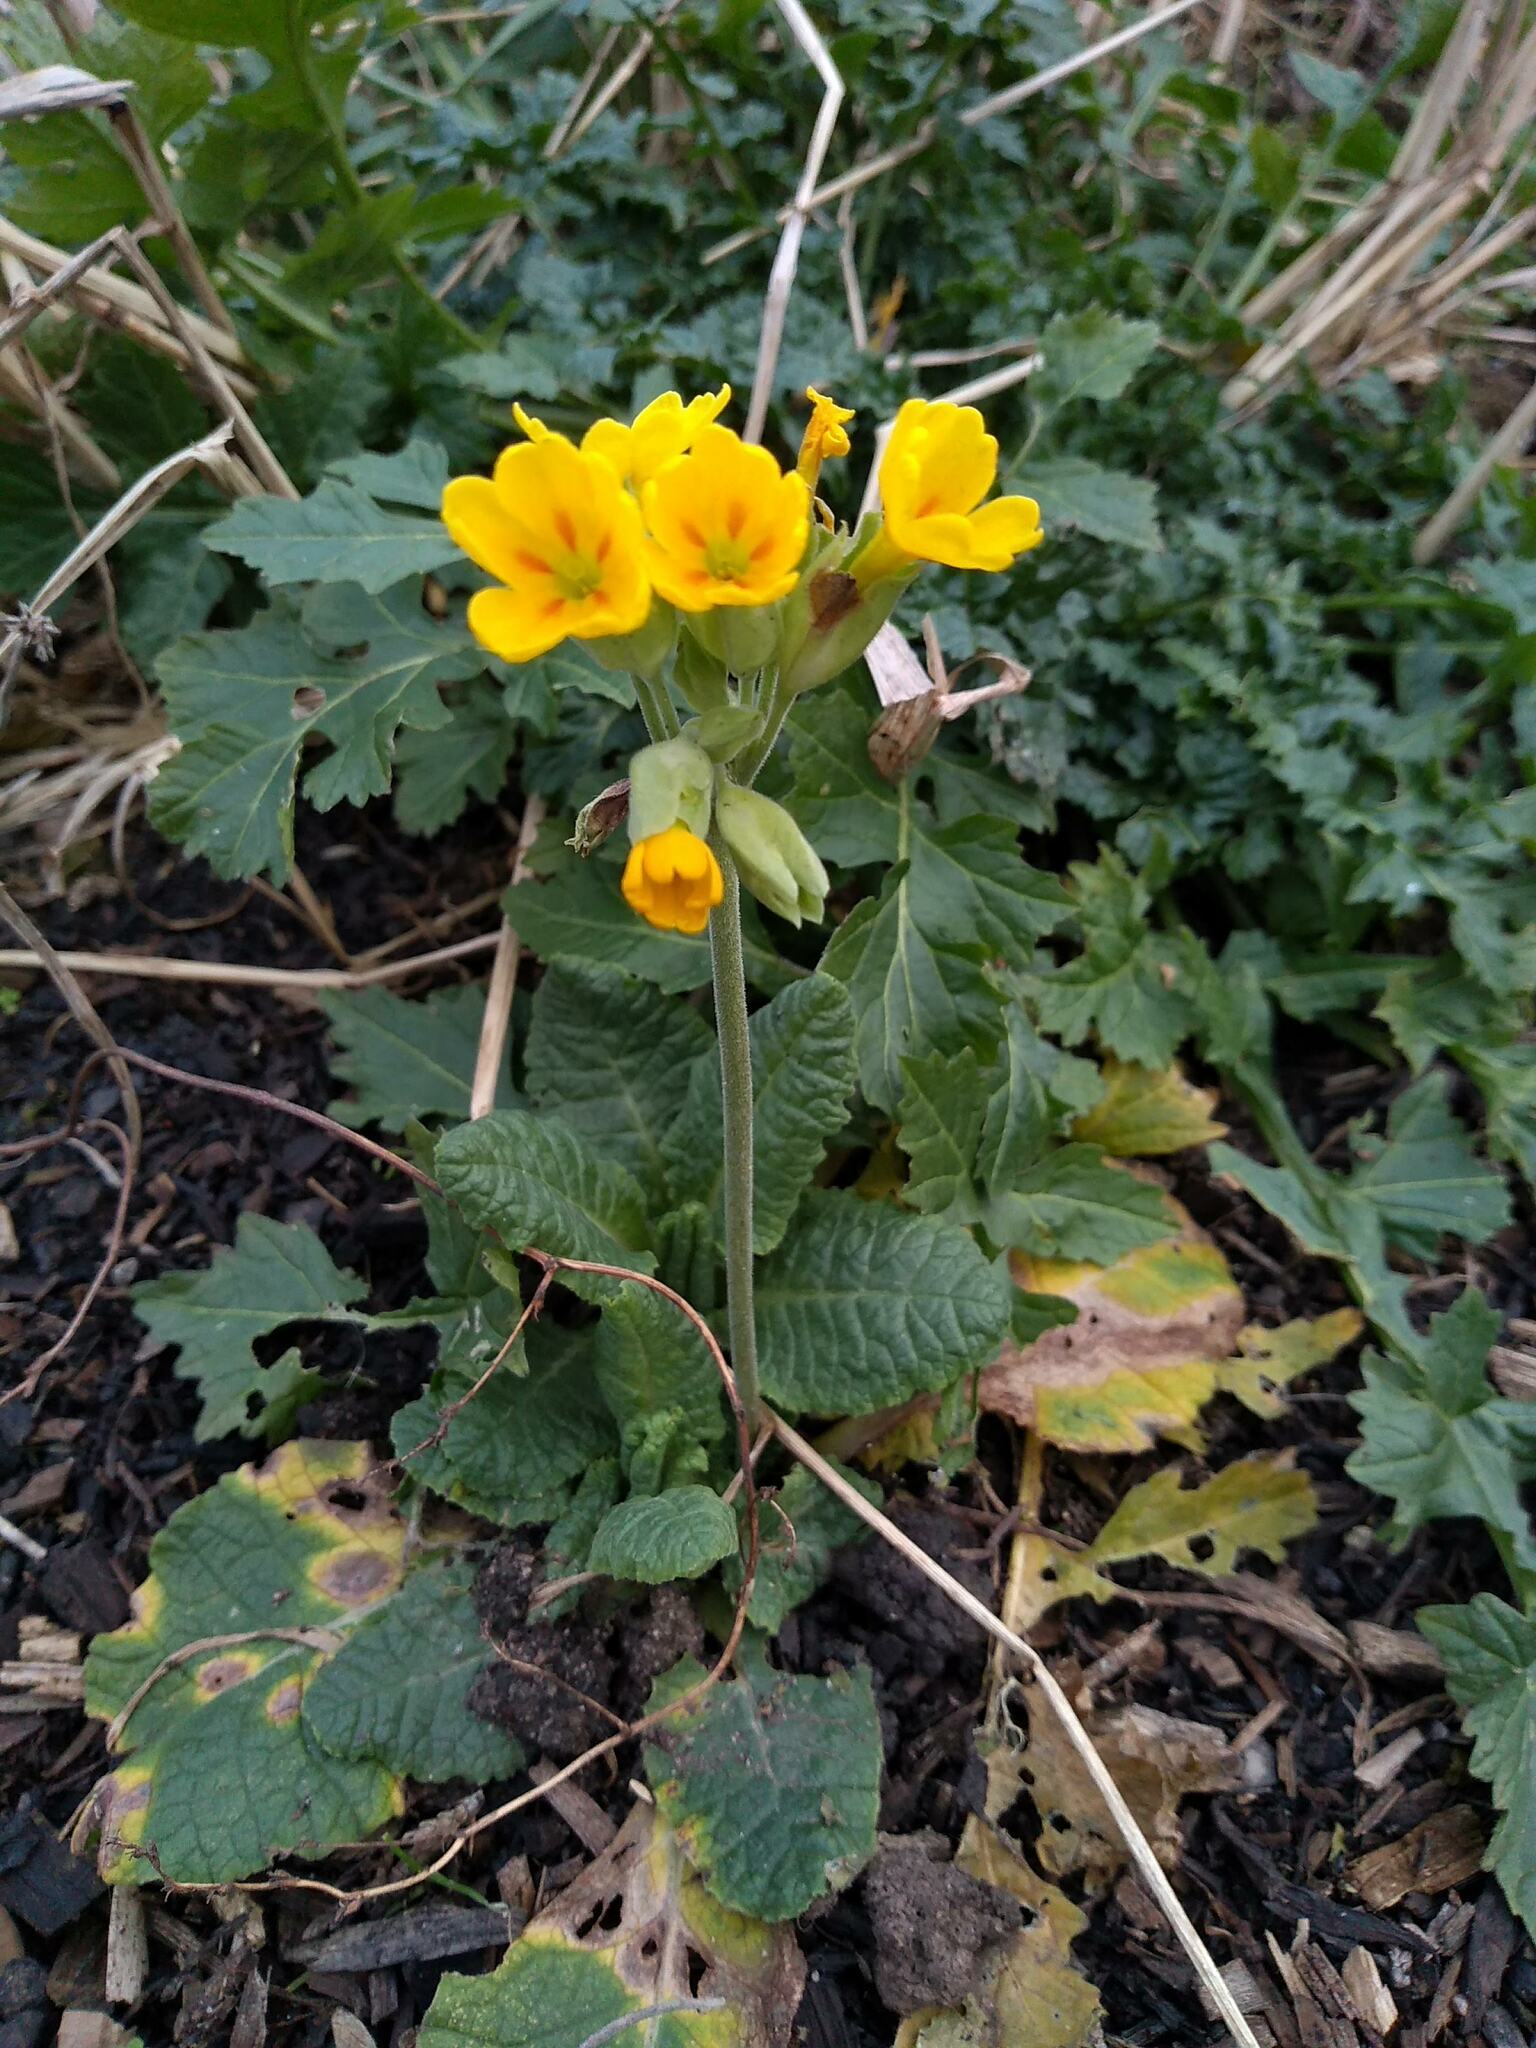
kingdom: Plantae
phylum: Tracheophyta
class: Magnoliopsida
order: Ericales
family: Primulaceae
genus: Primula
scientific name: Primula veris
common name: Cowslip
